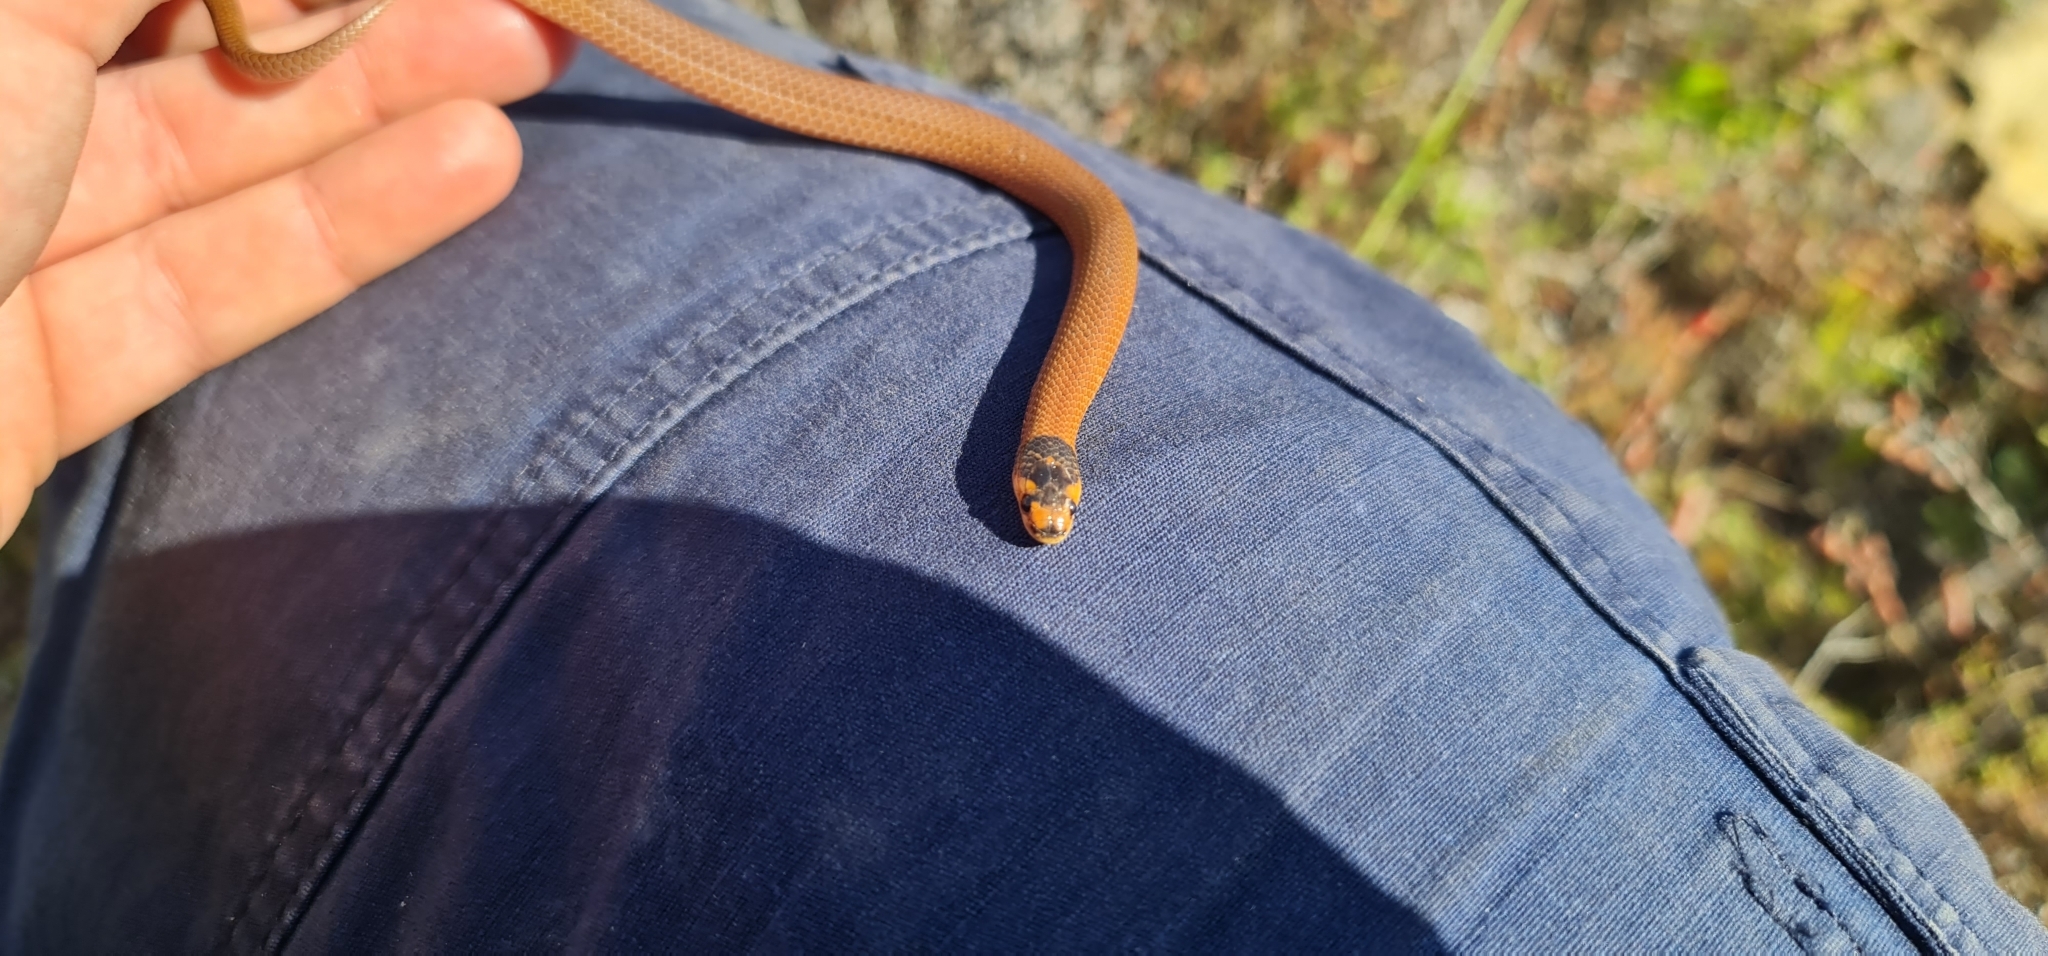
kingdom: Animalia
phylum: Chordata
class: Squamata
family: Elapidae
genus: Suta
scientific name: Suta spectabilis
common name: Bush’s hooded snake
